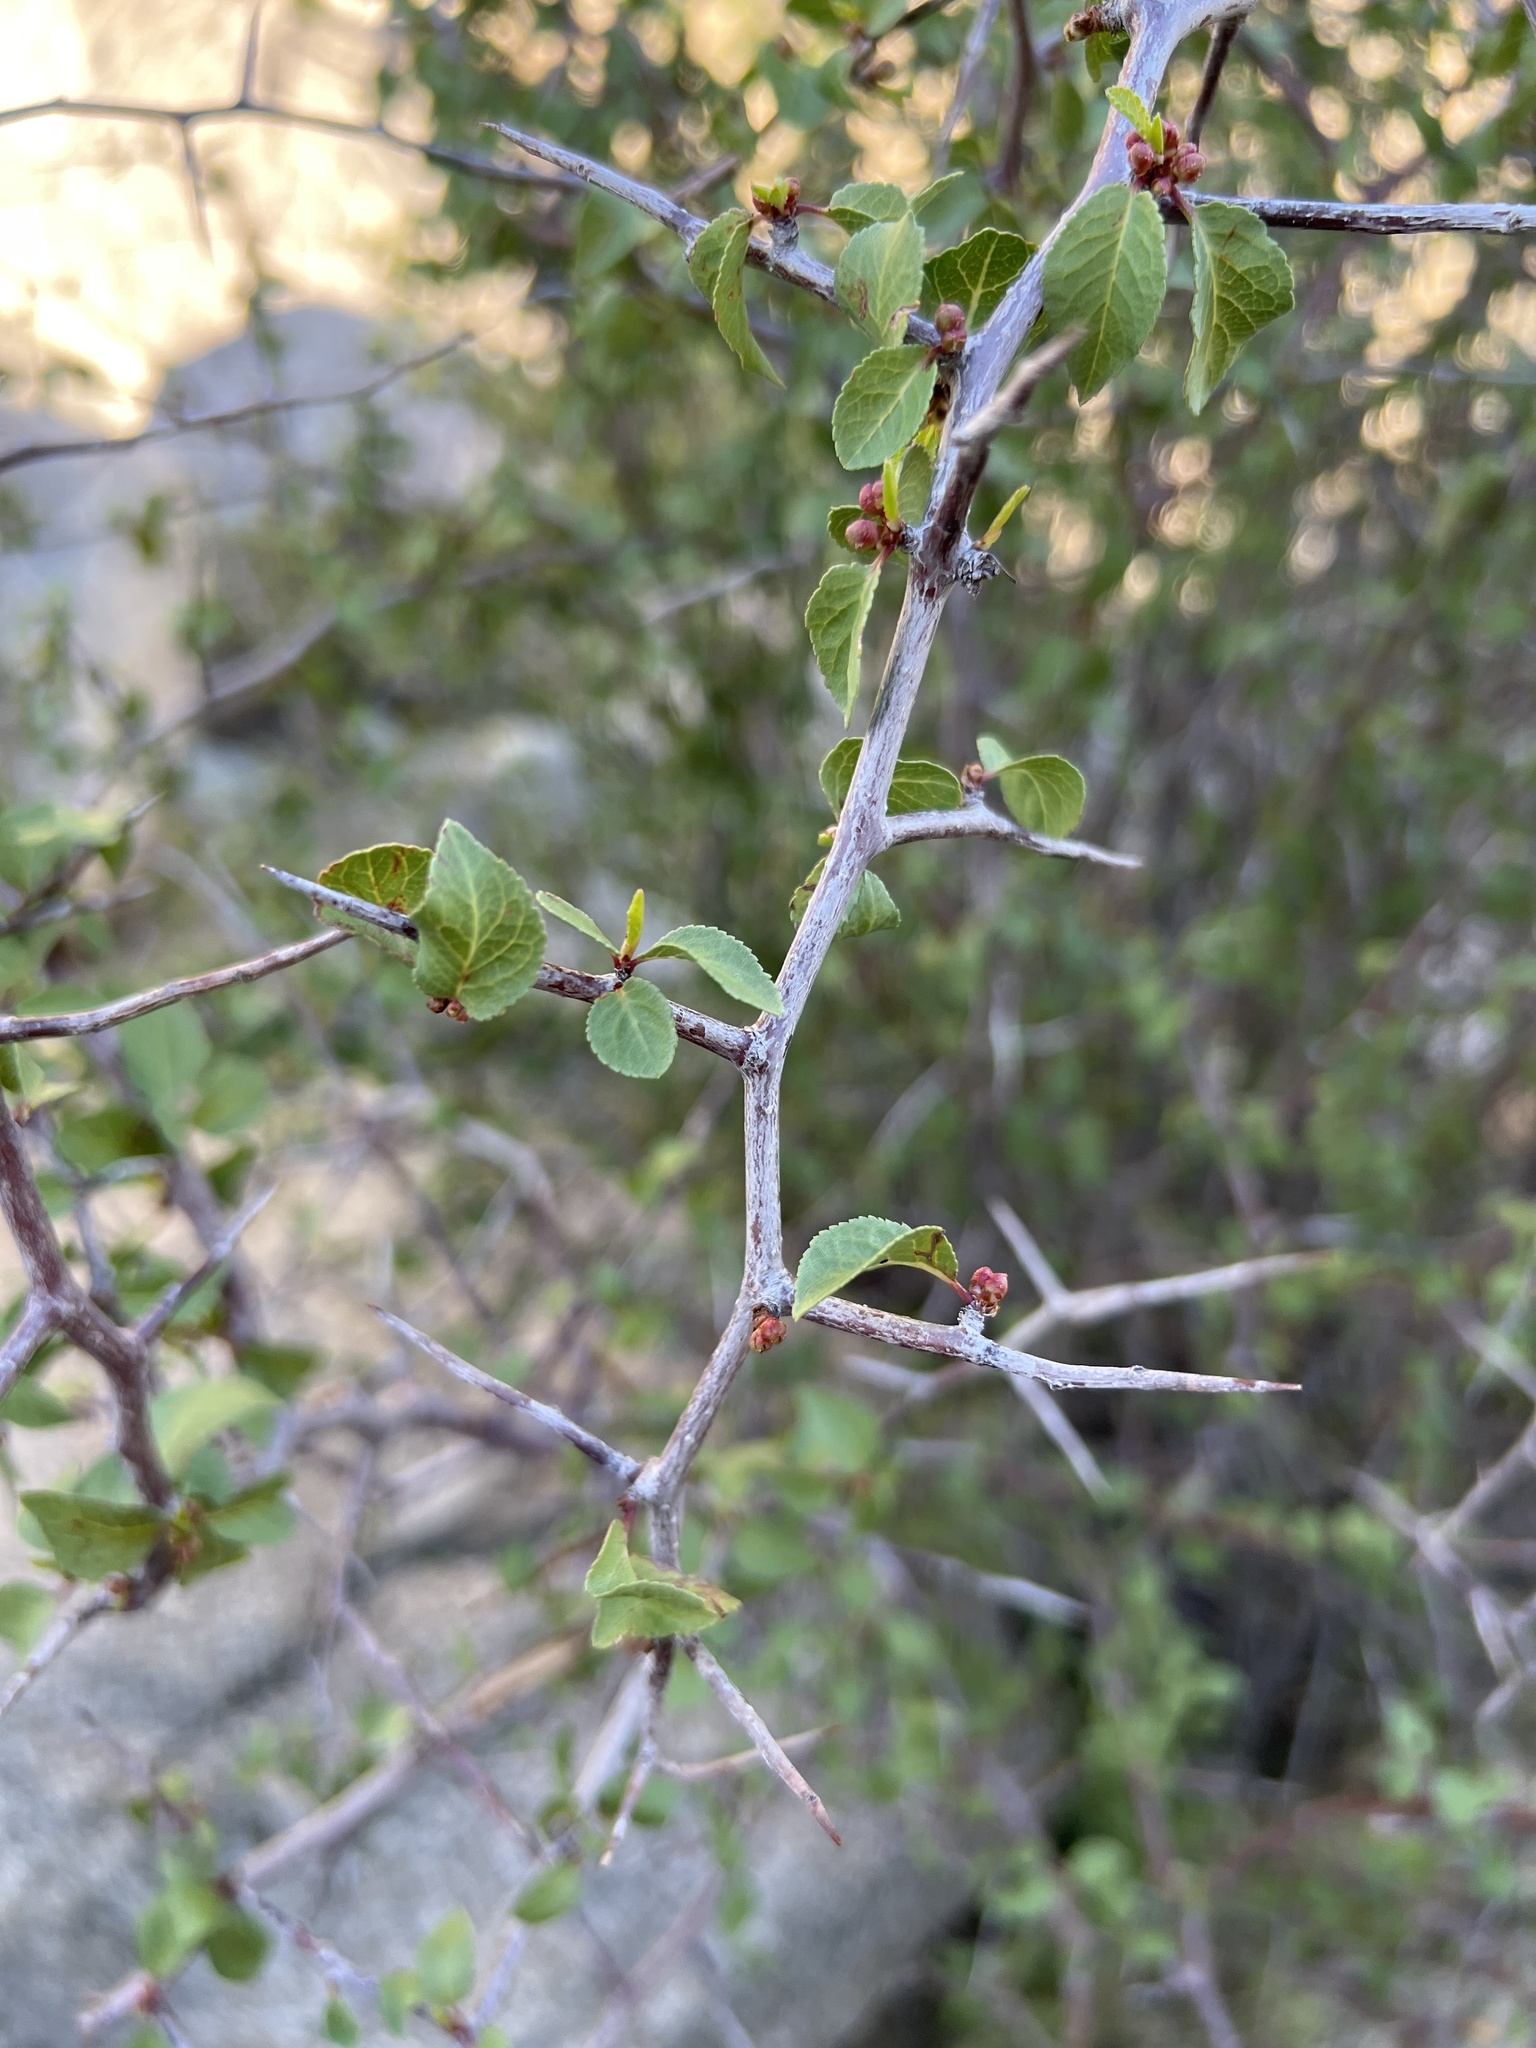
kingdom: Plantae
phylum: Tracheophyta
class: Magnoliopsida
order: Rosales
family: Rosaceae
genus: Prunus
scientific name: Prunus fremontii
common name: Desert apricot
